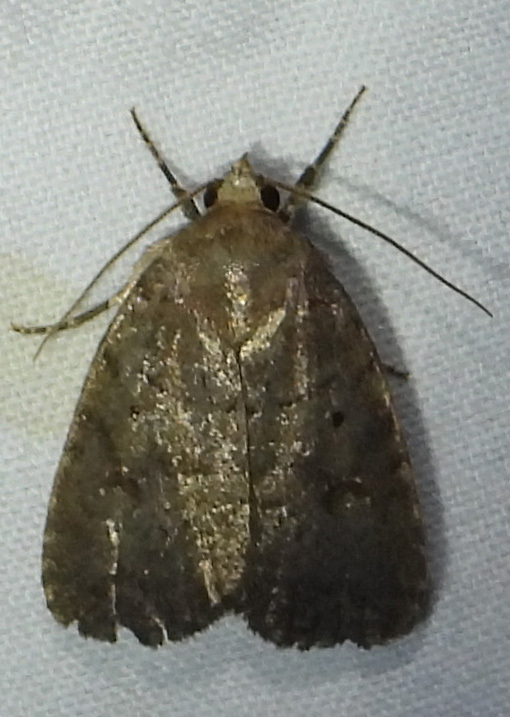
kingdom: Animalia
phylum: Arthropoda
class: Insecta
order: Lepidoptera
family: Noctuidae
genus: Athetis
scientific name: Athetis tarda
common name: Slowpoke moth
